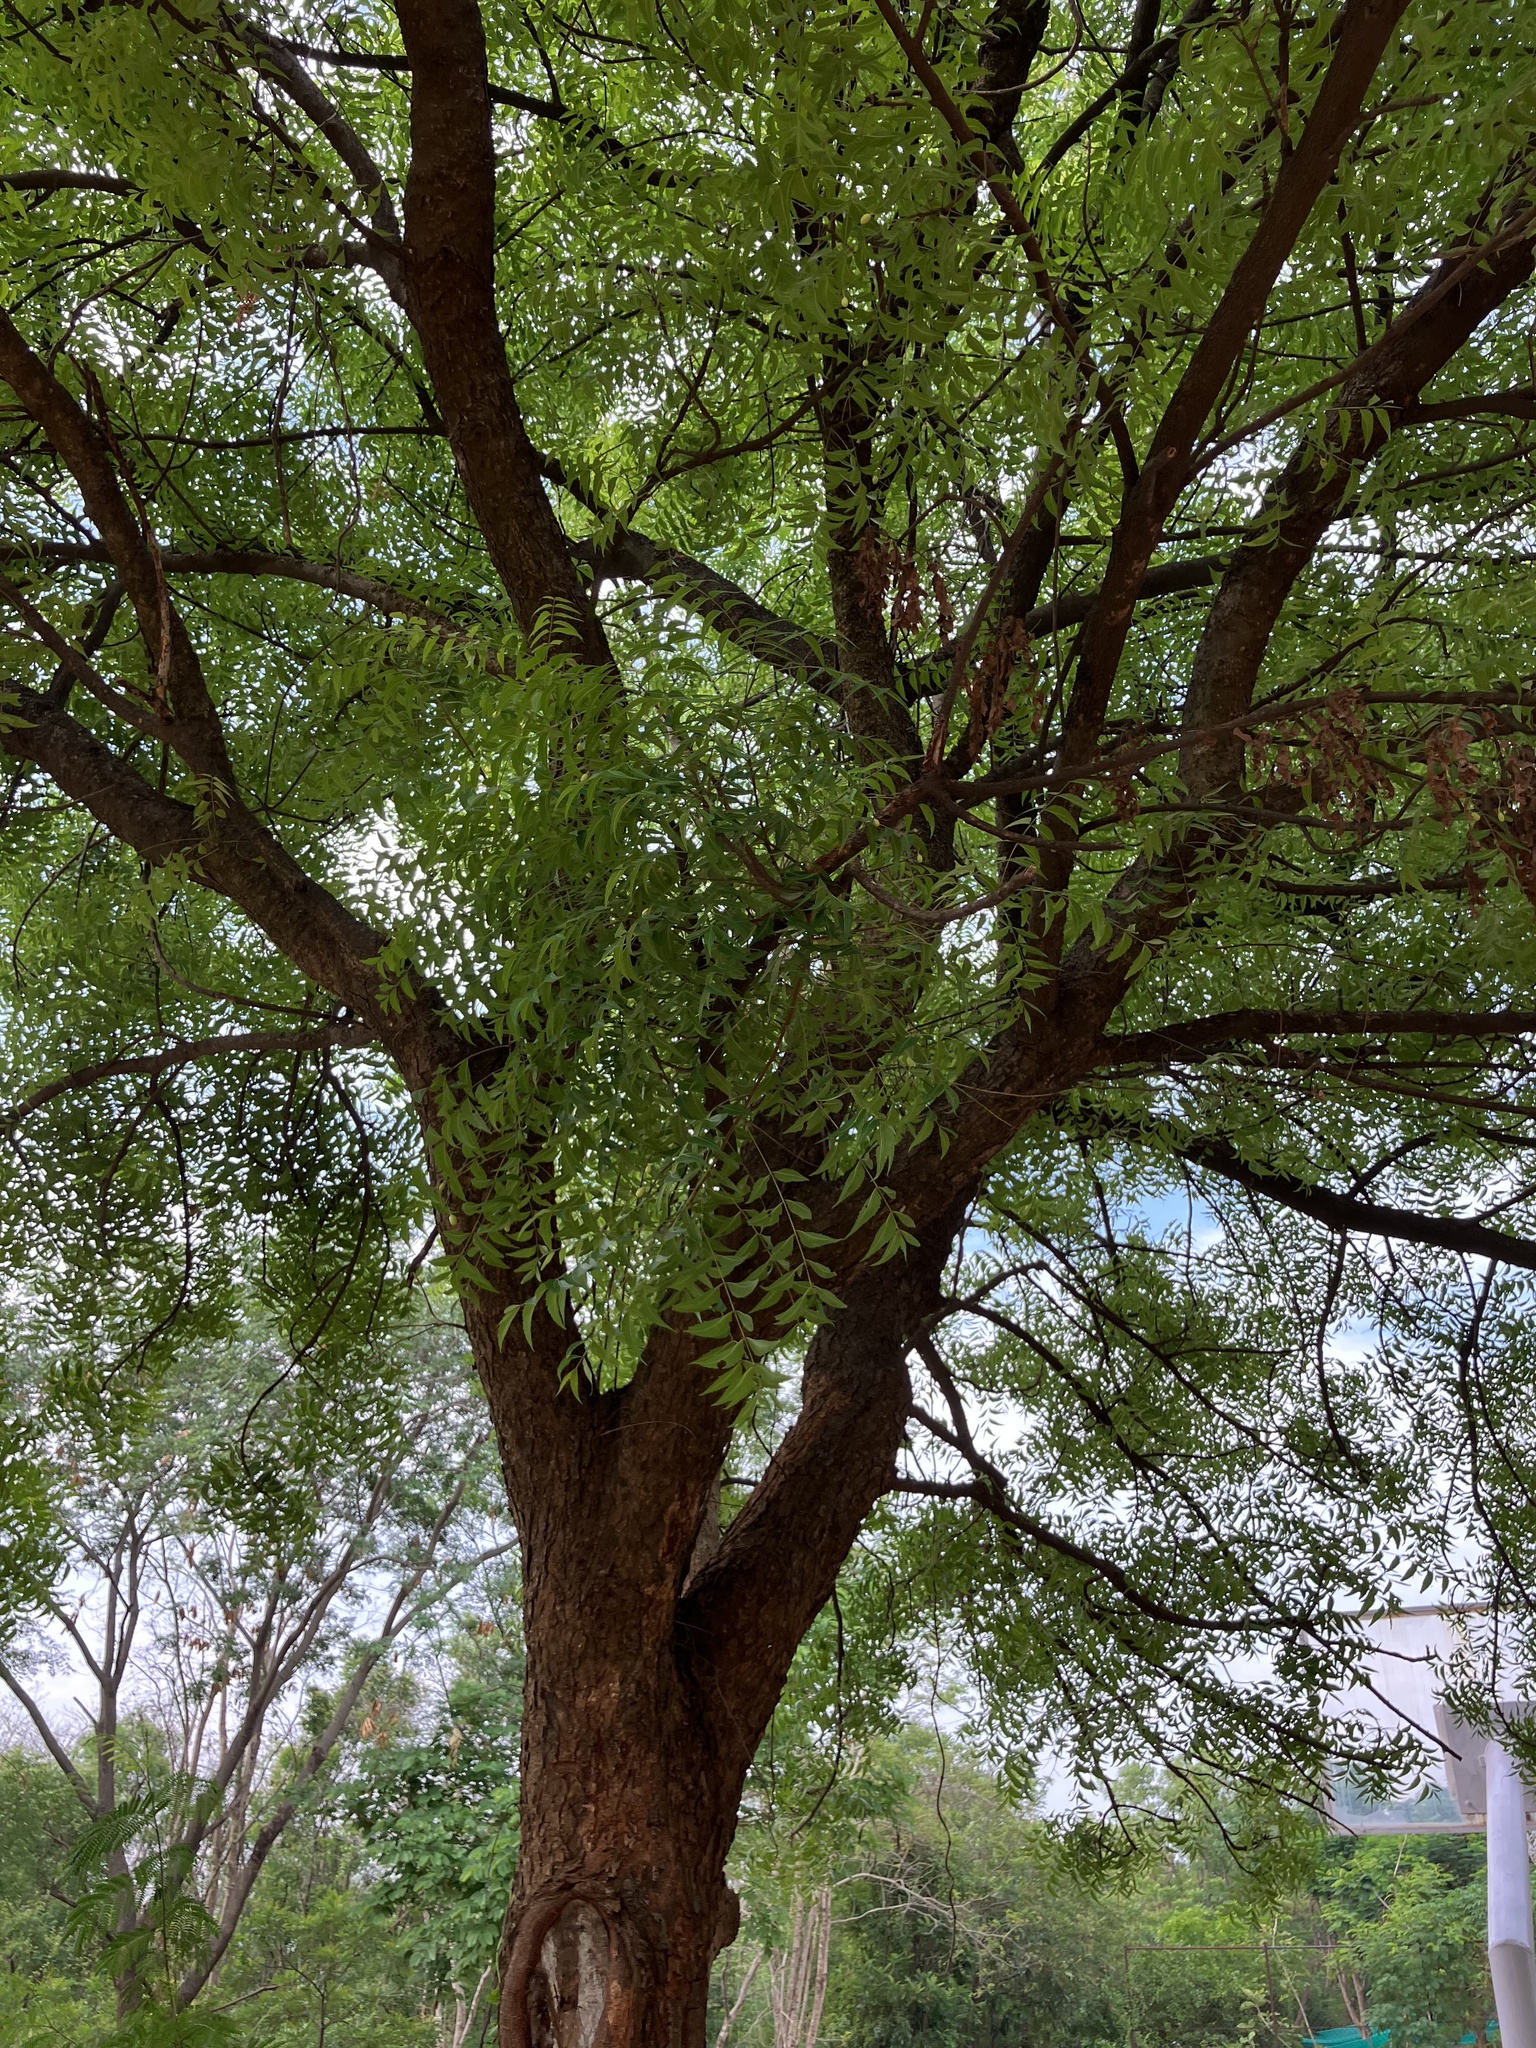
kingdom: Plantae
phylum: Tracheophyta
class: Magnoliopsida
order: Sapindales
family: Meliaceae
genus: Azadirachta
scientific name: Azadirachta indica
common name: Neem
